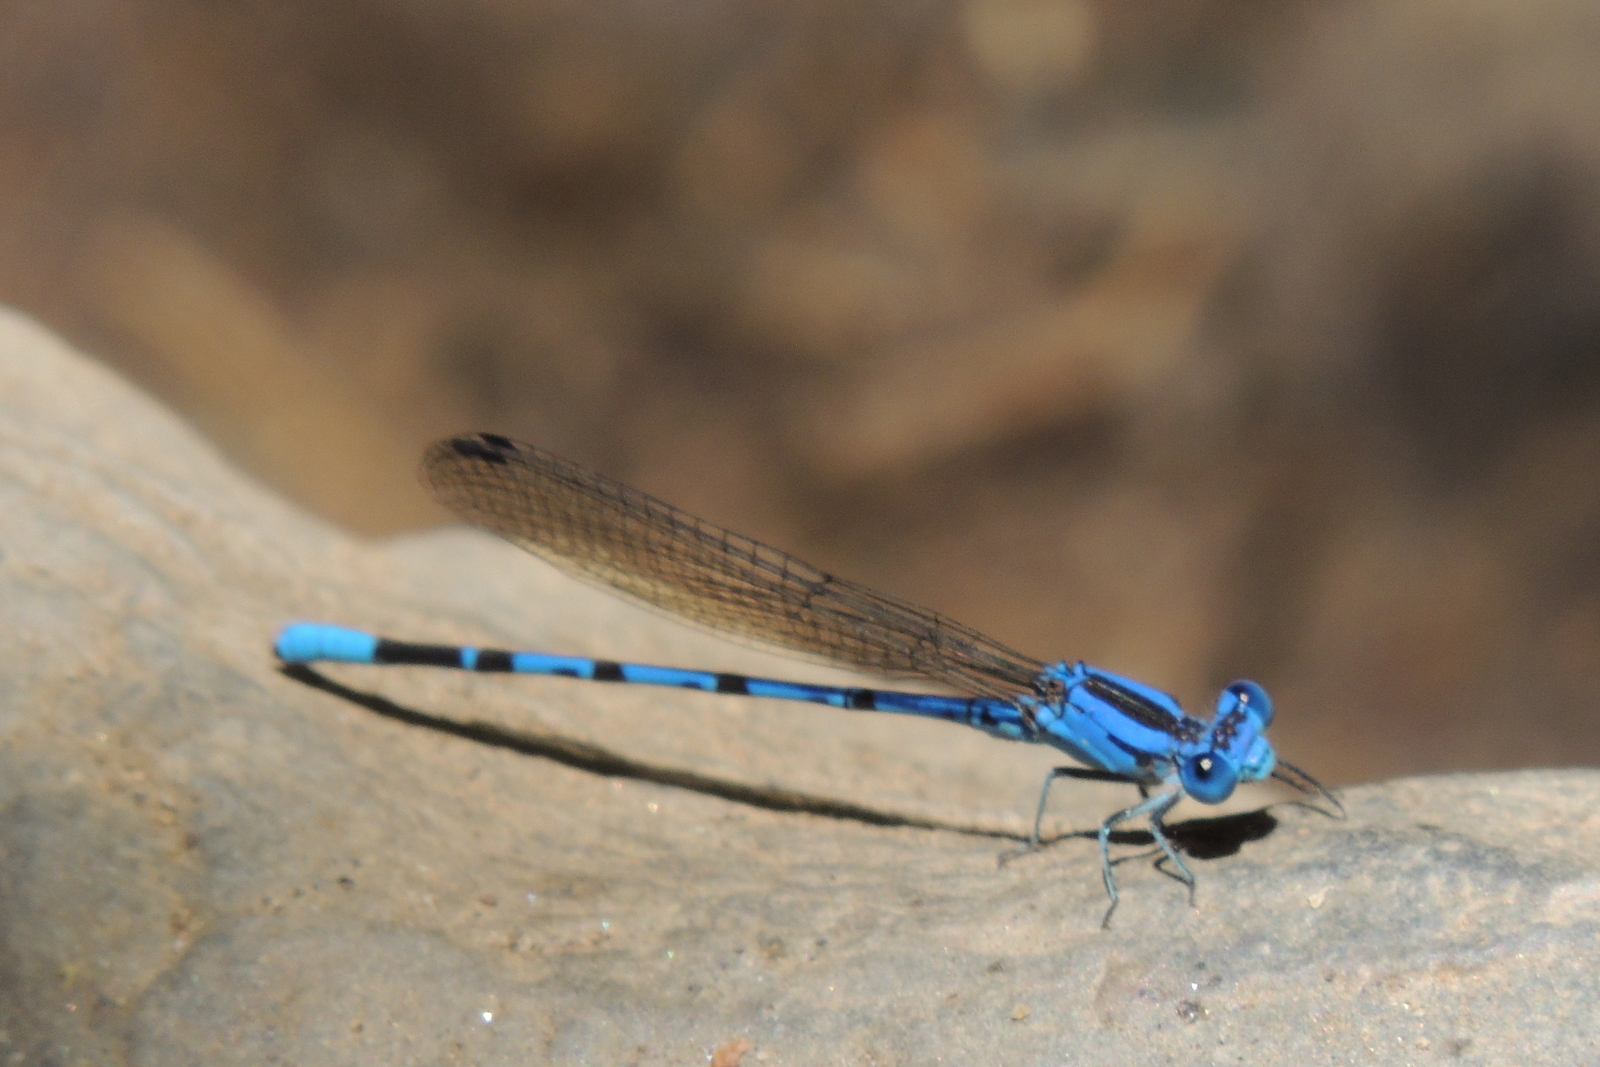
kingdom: Animalia
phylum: Arthropoda
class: Insecta
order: Odonata
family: Coenagrionidae
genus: Argia
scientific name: Argia vivida
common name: Vivid dancer
